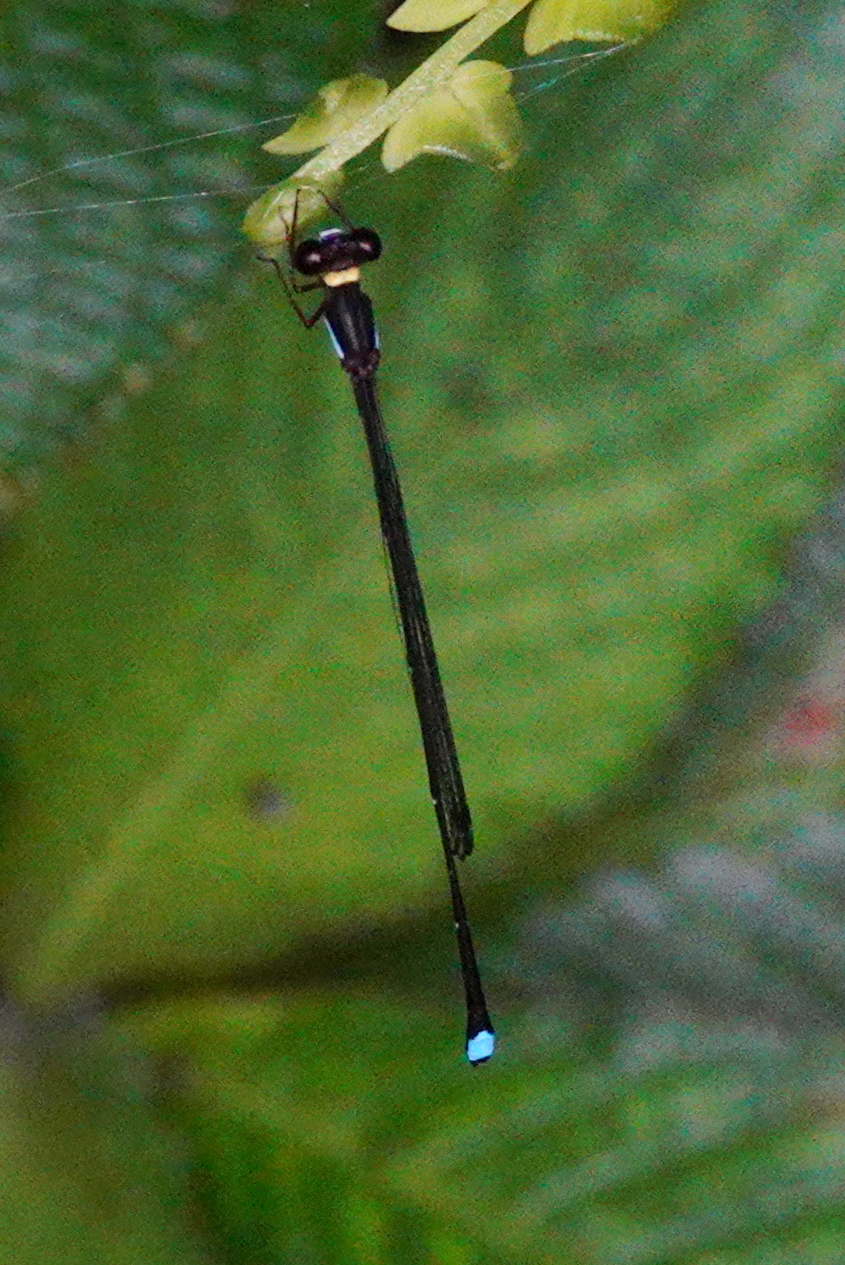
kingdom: Animalia
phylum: Arthropoda
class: Insecta
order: Odonata
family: Platystictidae
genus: Ceylonosticta
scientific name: Ceylonosticta anamia
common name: Ana mia’s shadowdamsel
